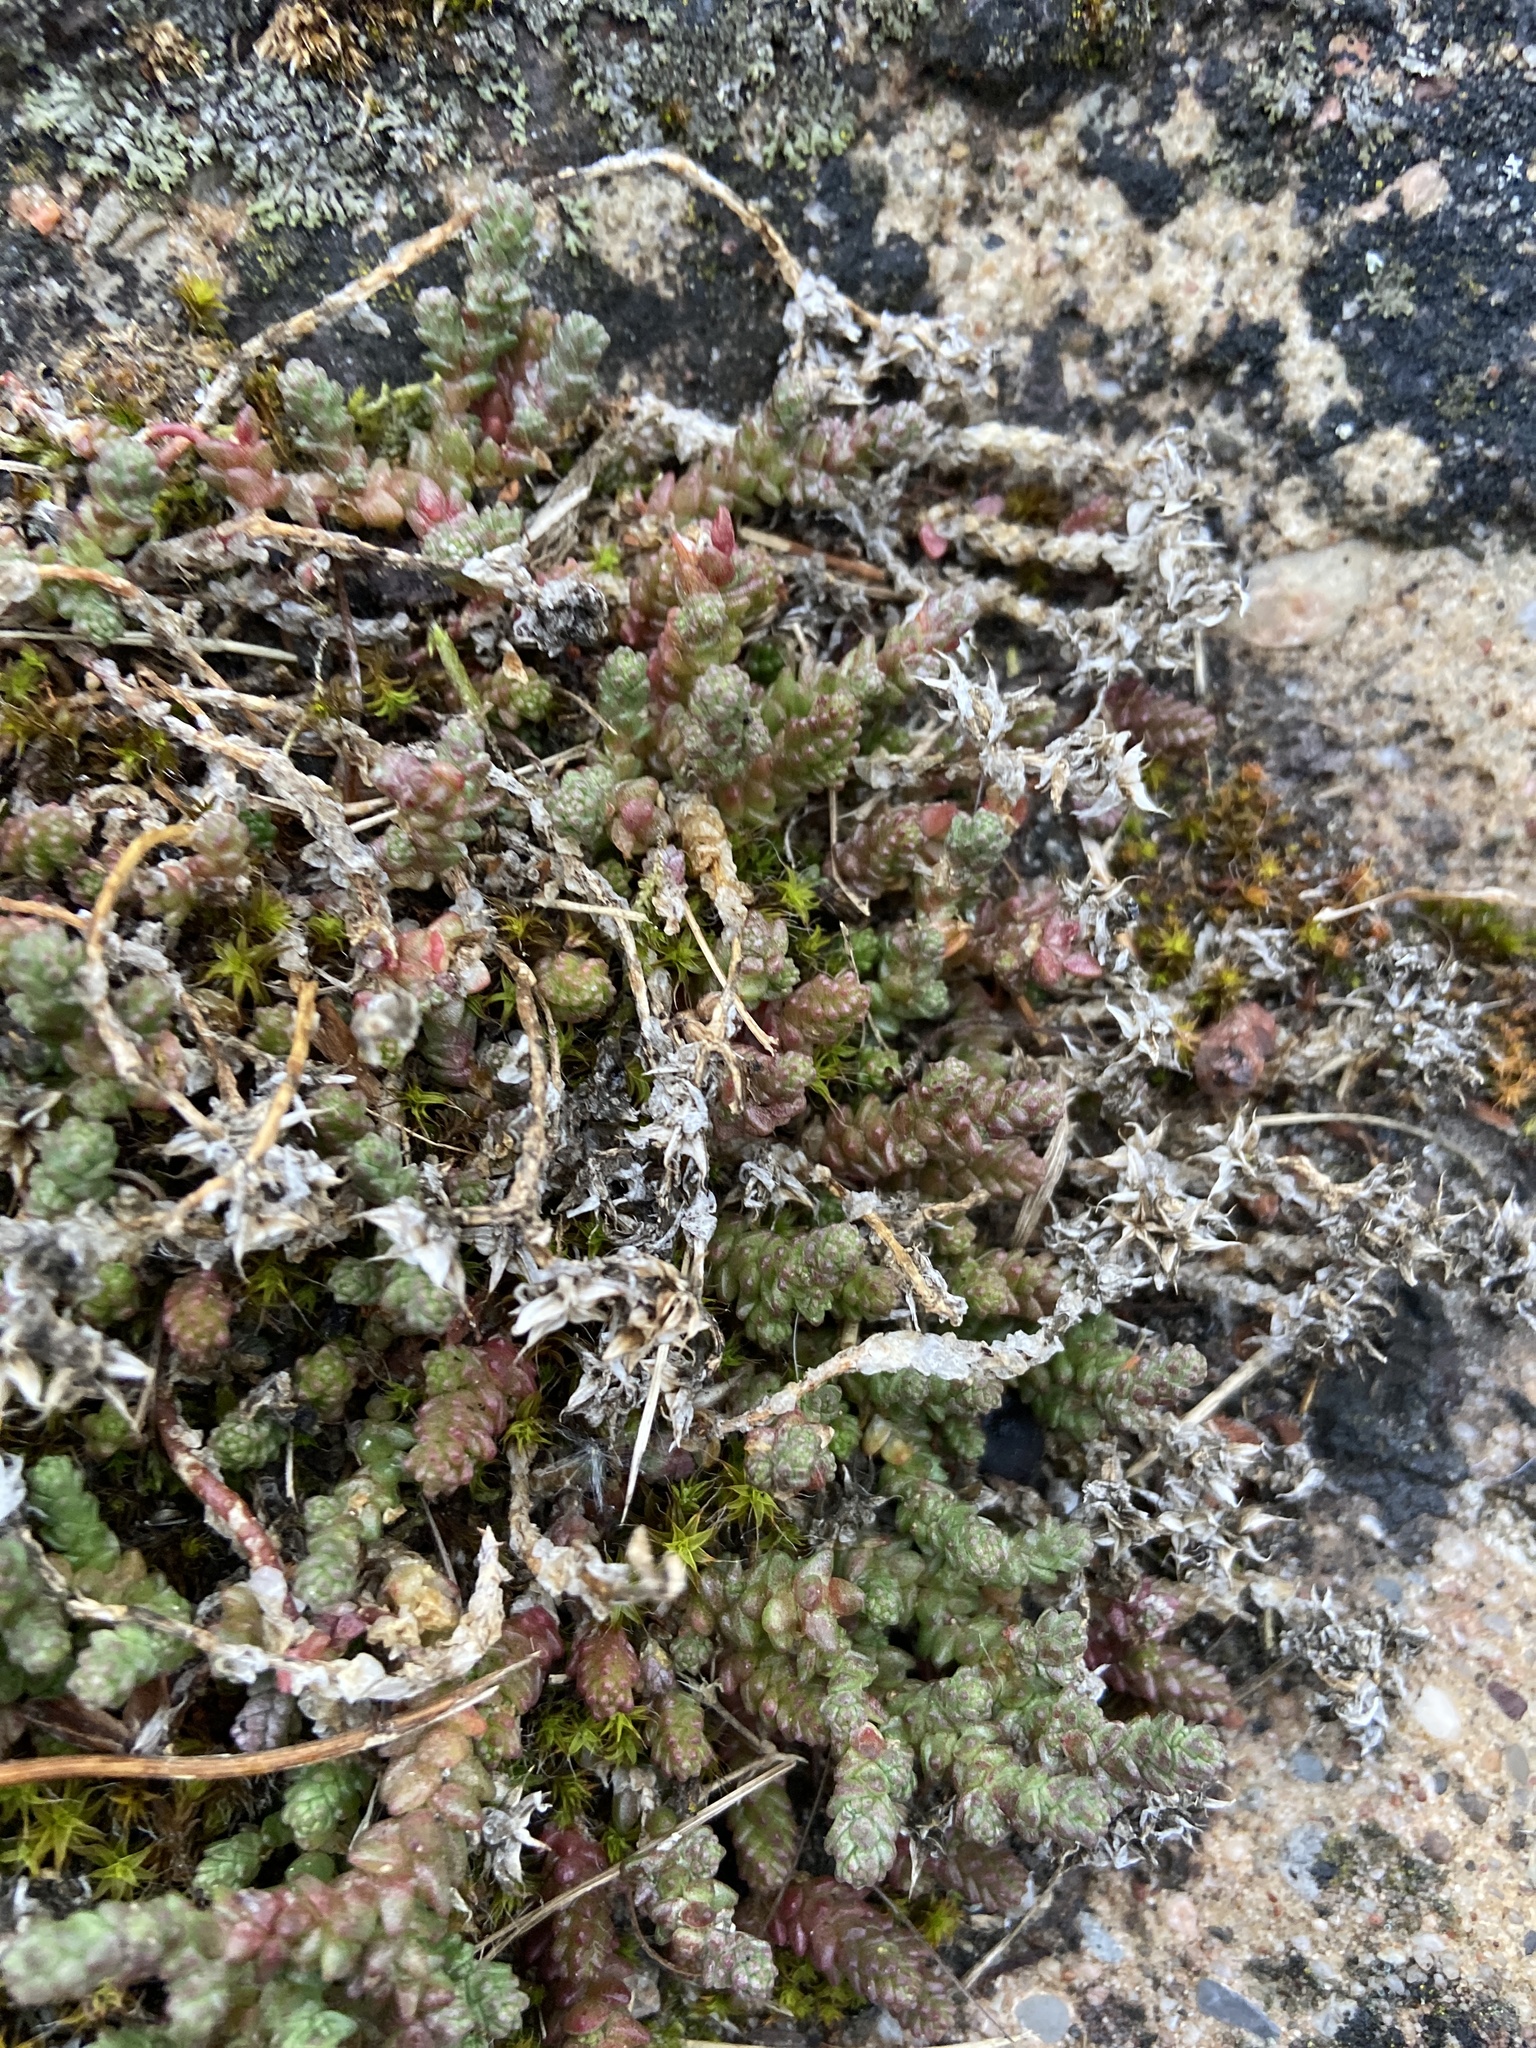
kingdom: Plantae
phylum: Tracheophyta
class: Magnoliopsida
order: Saxifragales
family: Crassulaceae
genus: Sedum
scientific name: Sedum acre
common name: Biting stonecrop
